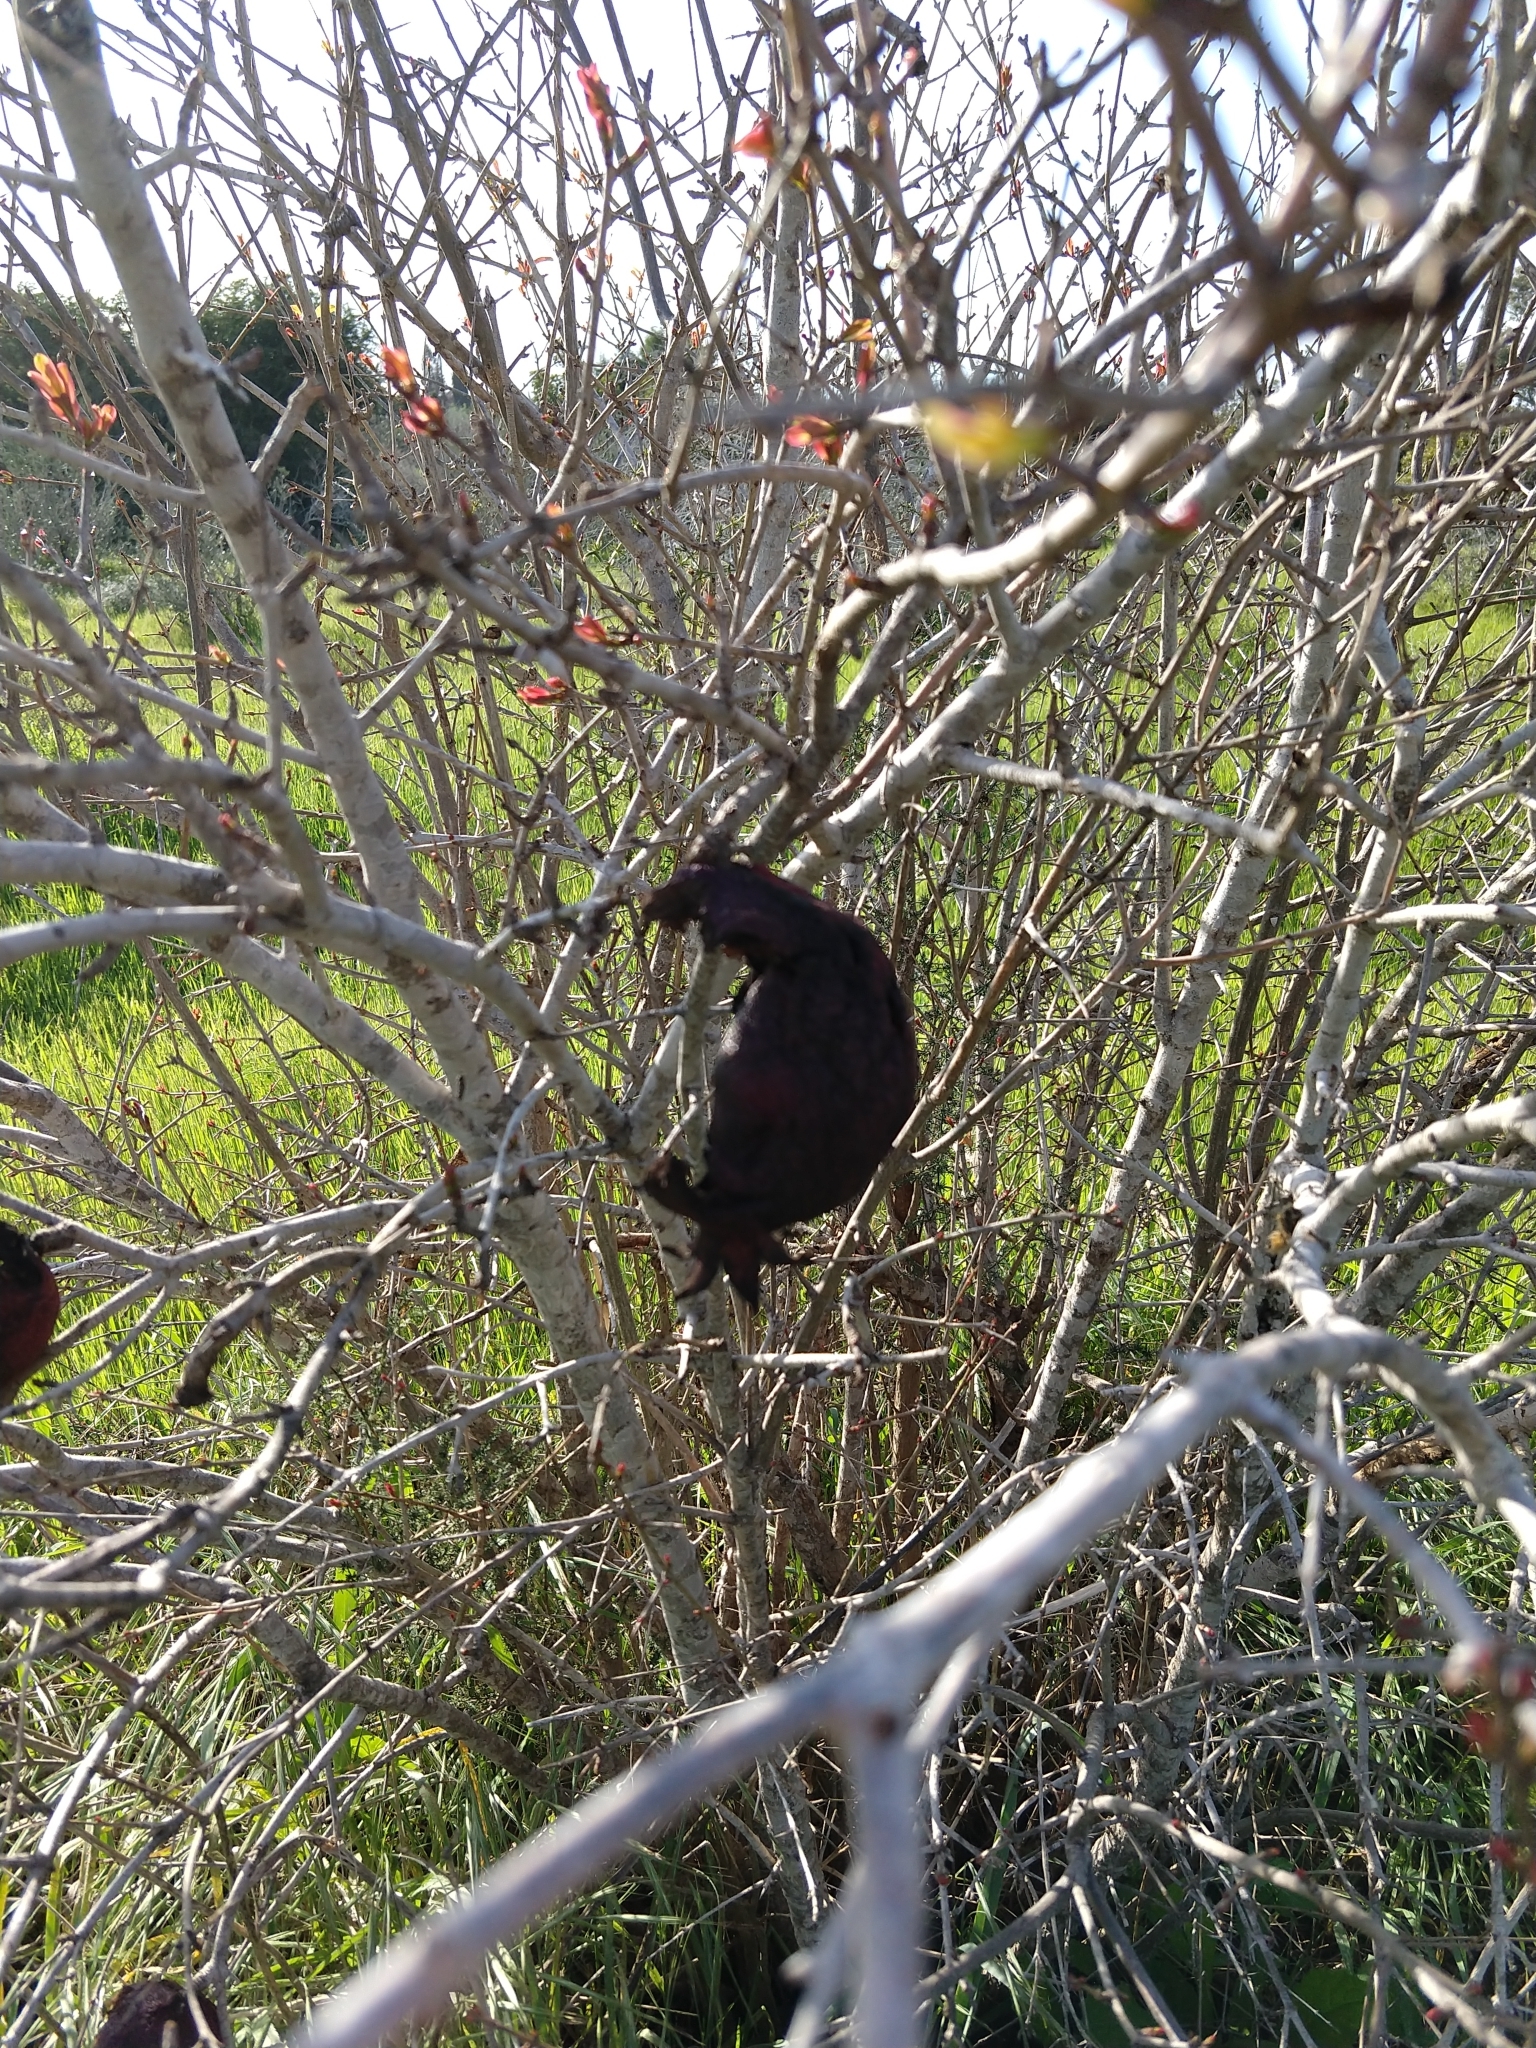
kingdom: Plantae
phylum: Tracheophyta
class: Magnoliopsida
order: Myrtales
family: Lythraceae
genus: Punica
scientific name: Punica granatum
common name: Pomegranate
